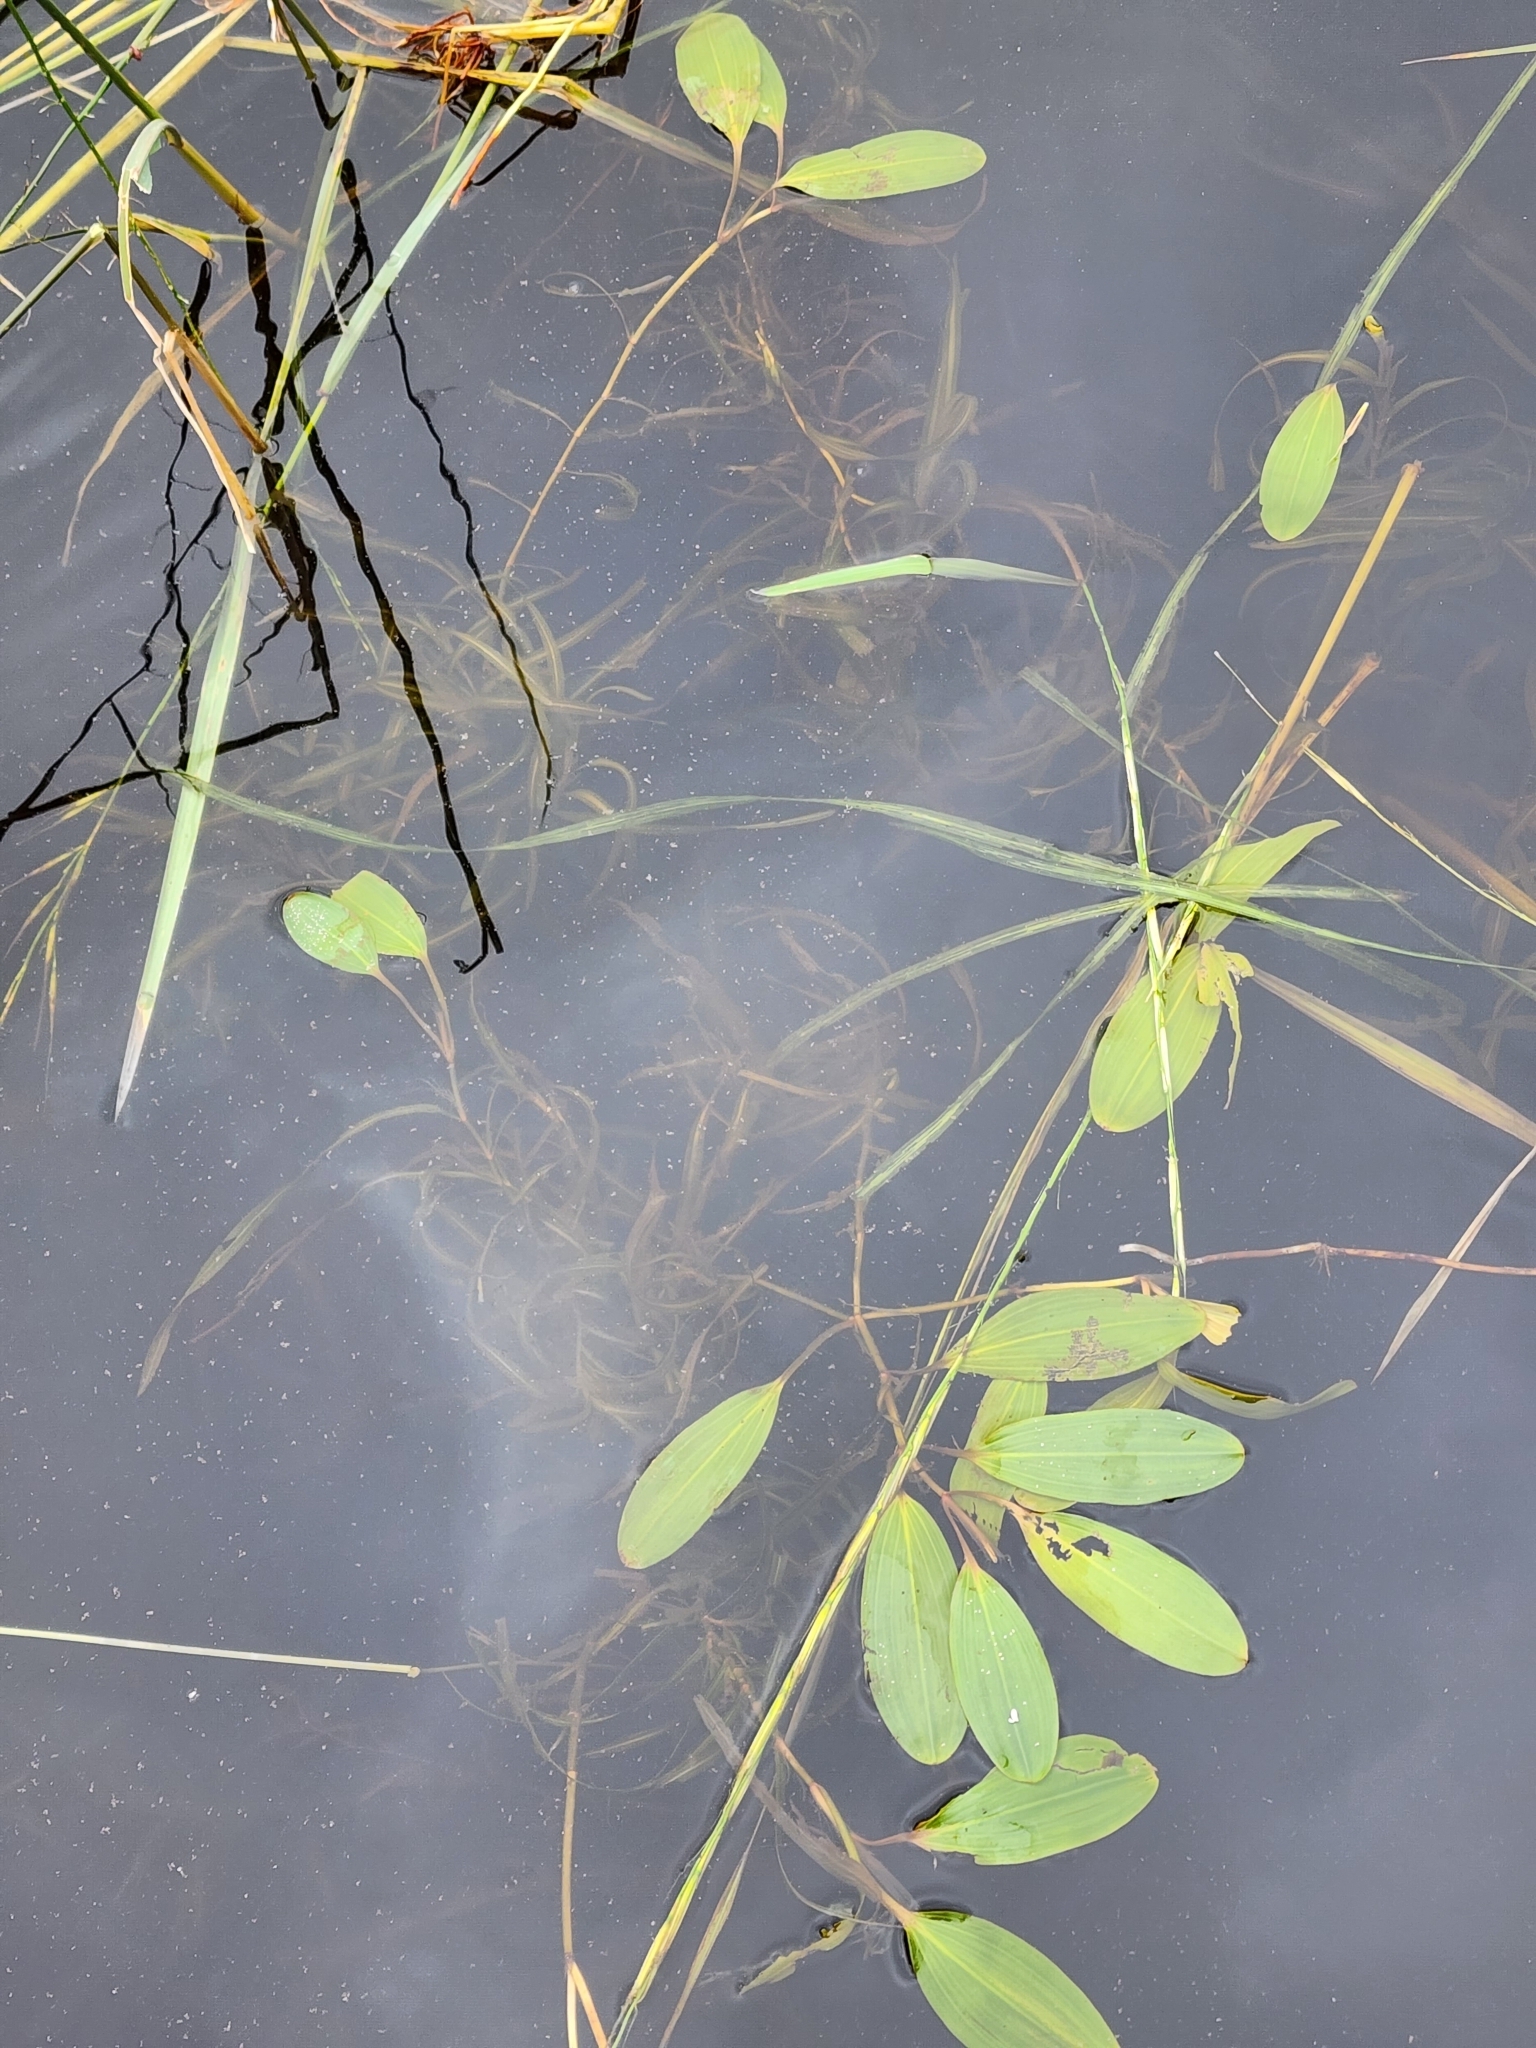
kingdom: Plantae
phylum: Tracheophyta
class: Liliopsida
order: Alismatales
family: Potamogetonaceae
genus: Potamogeton
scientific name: Potamogeton epihydrus
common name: American pondweed
